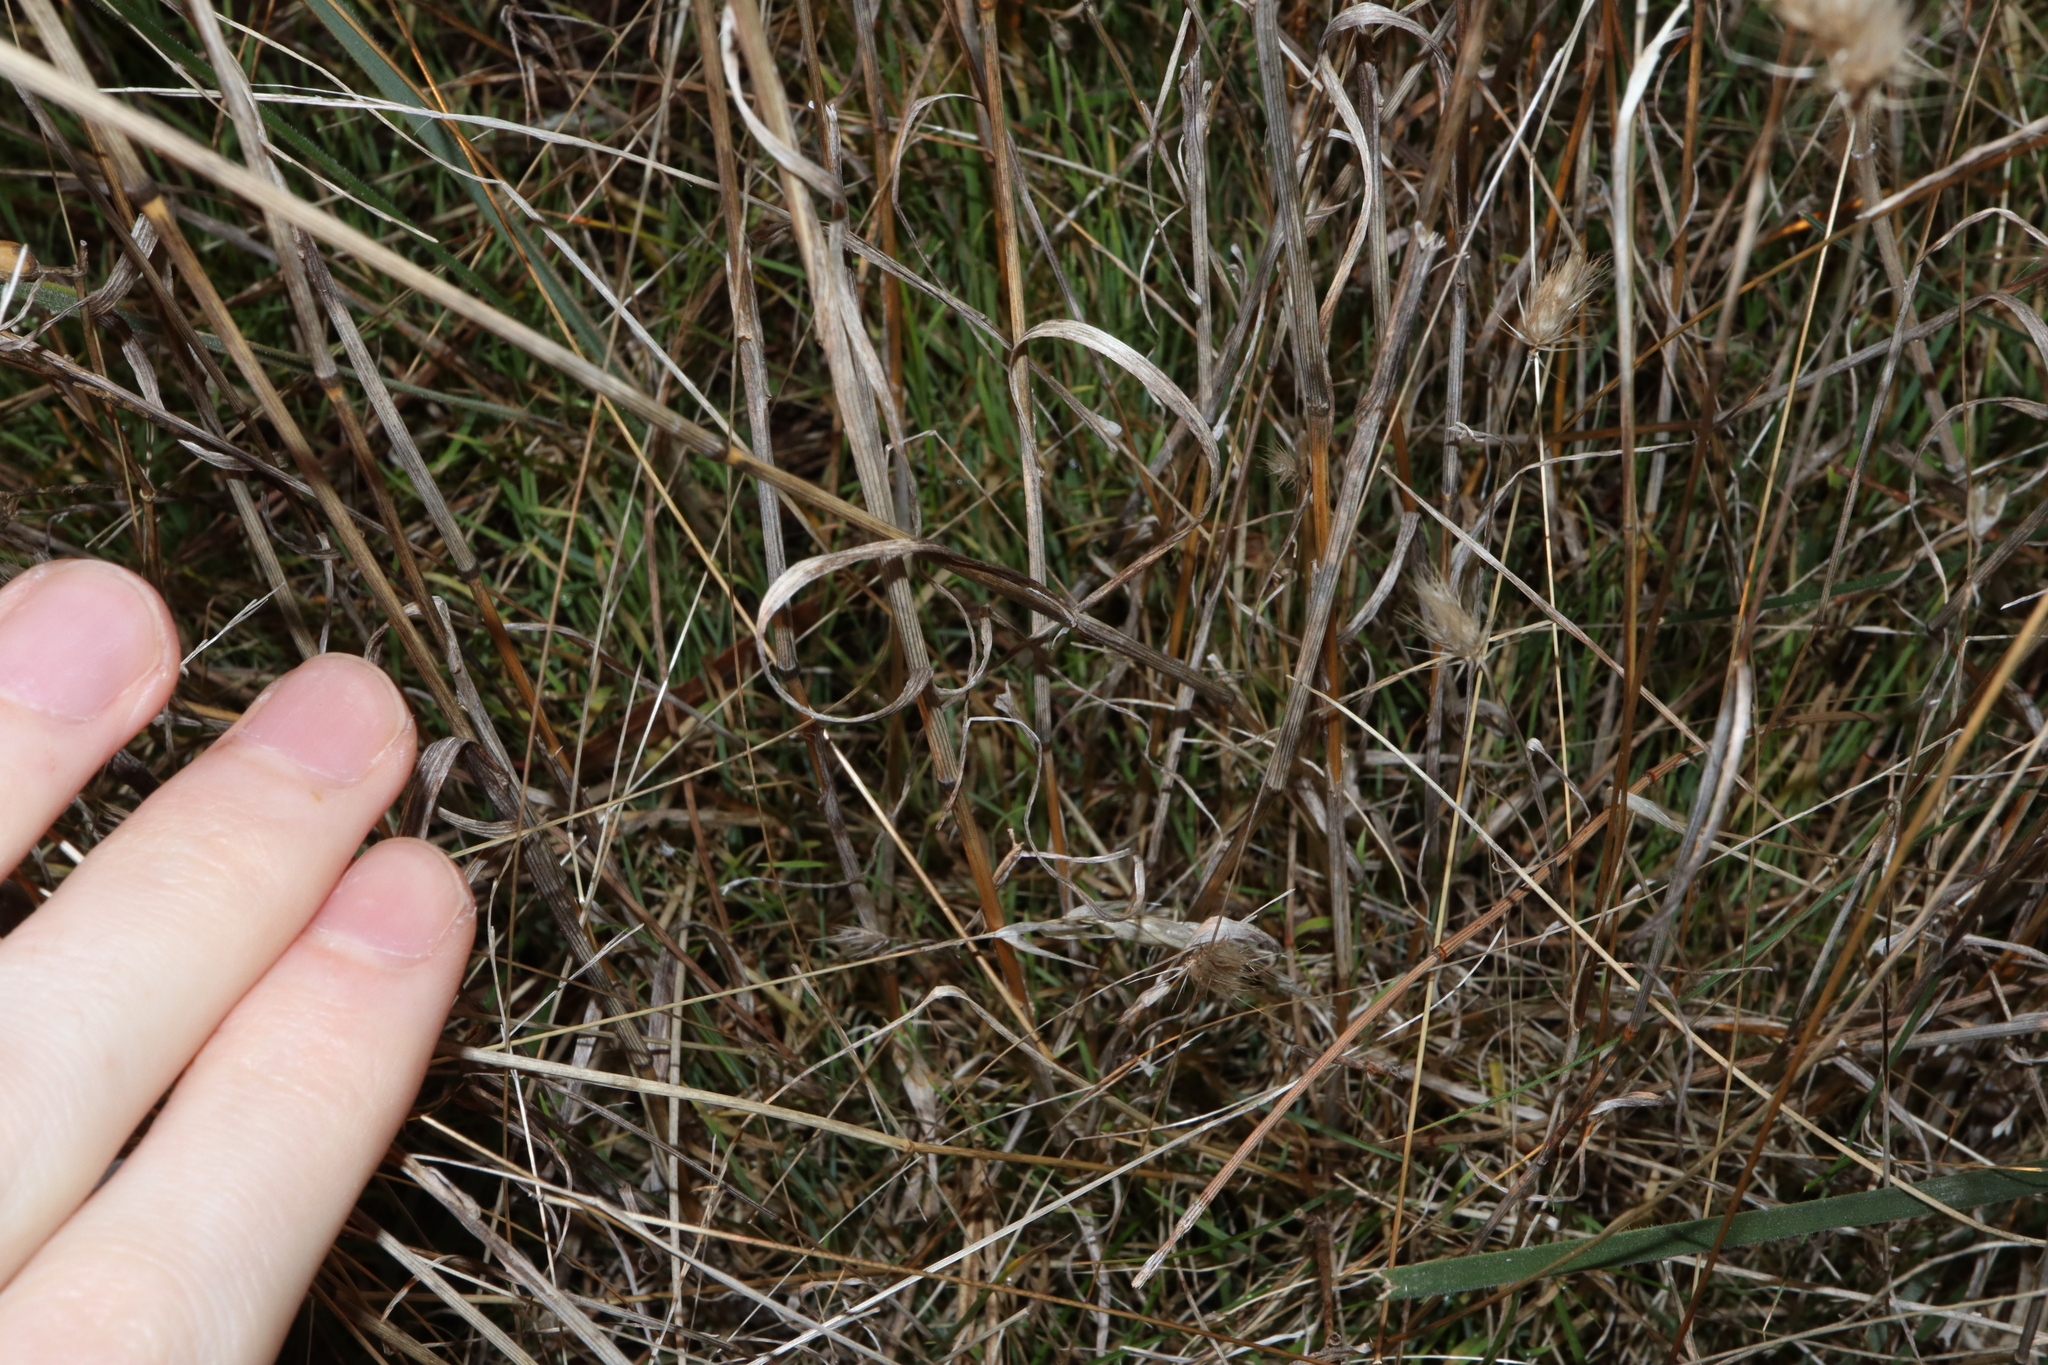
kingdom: Plantae
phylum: Tracheophyta
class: Liliopsida
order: Poales
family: Poaceae
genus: Cynosurus
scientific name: Cynosurus echinatus
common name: Rough dog's-tail
